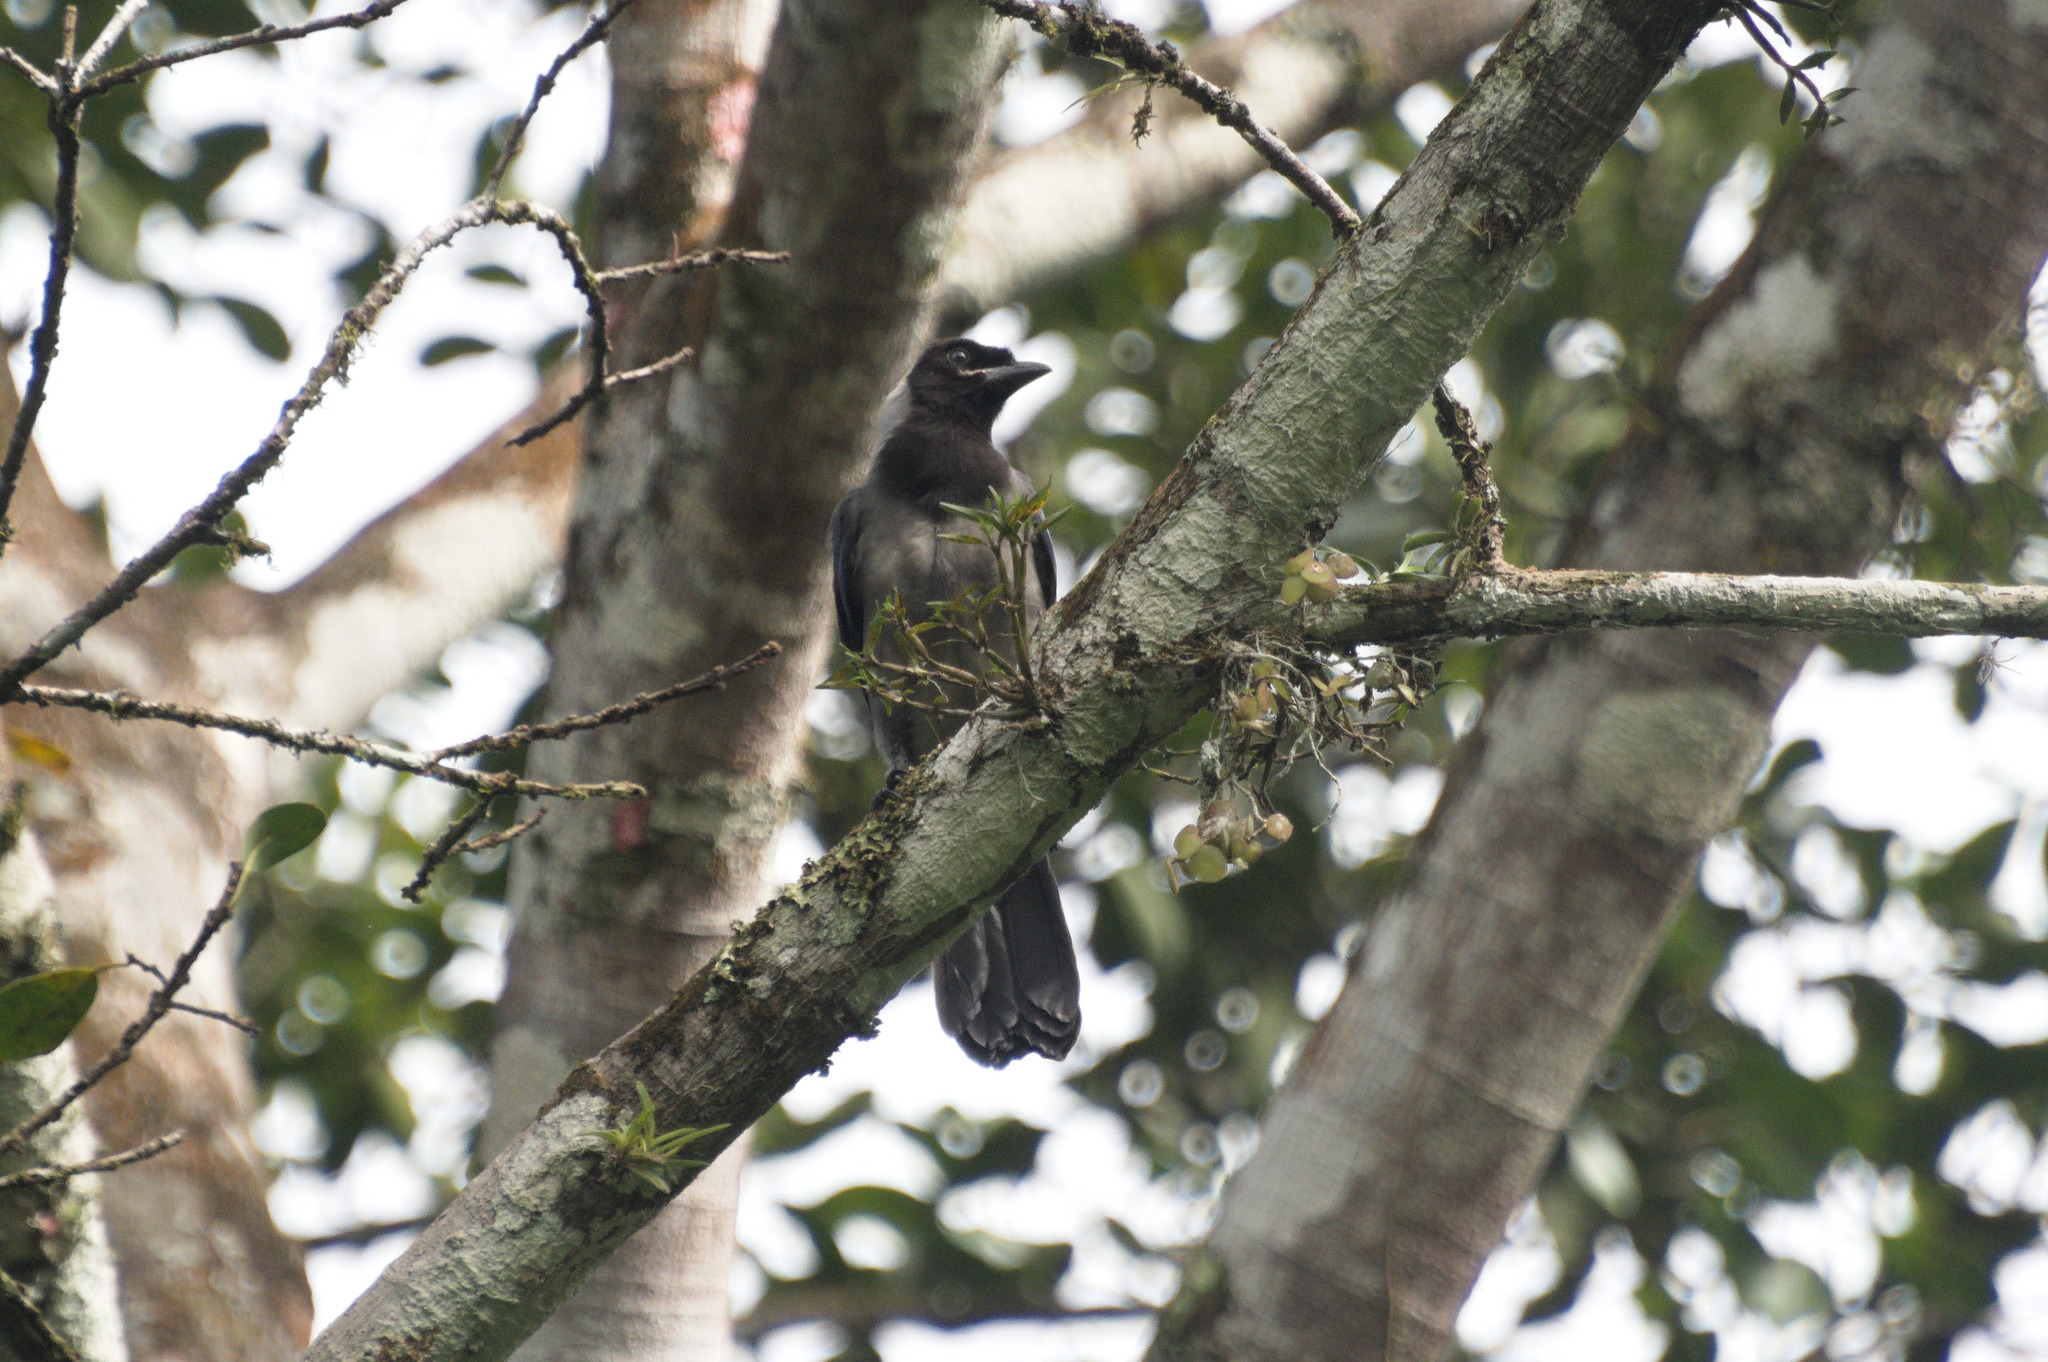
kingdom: Animalia
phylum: Chordata
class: Aves
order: Passeriformes
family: Corvidae
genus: Cyanocorax
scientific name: Cyanocorax violaceus
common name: Violaceous jay
